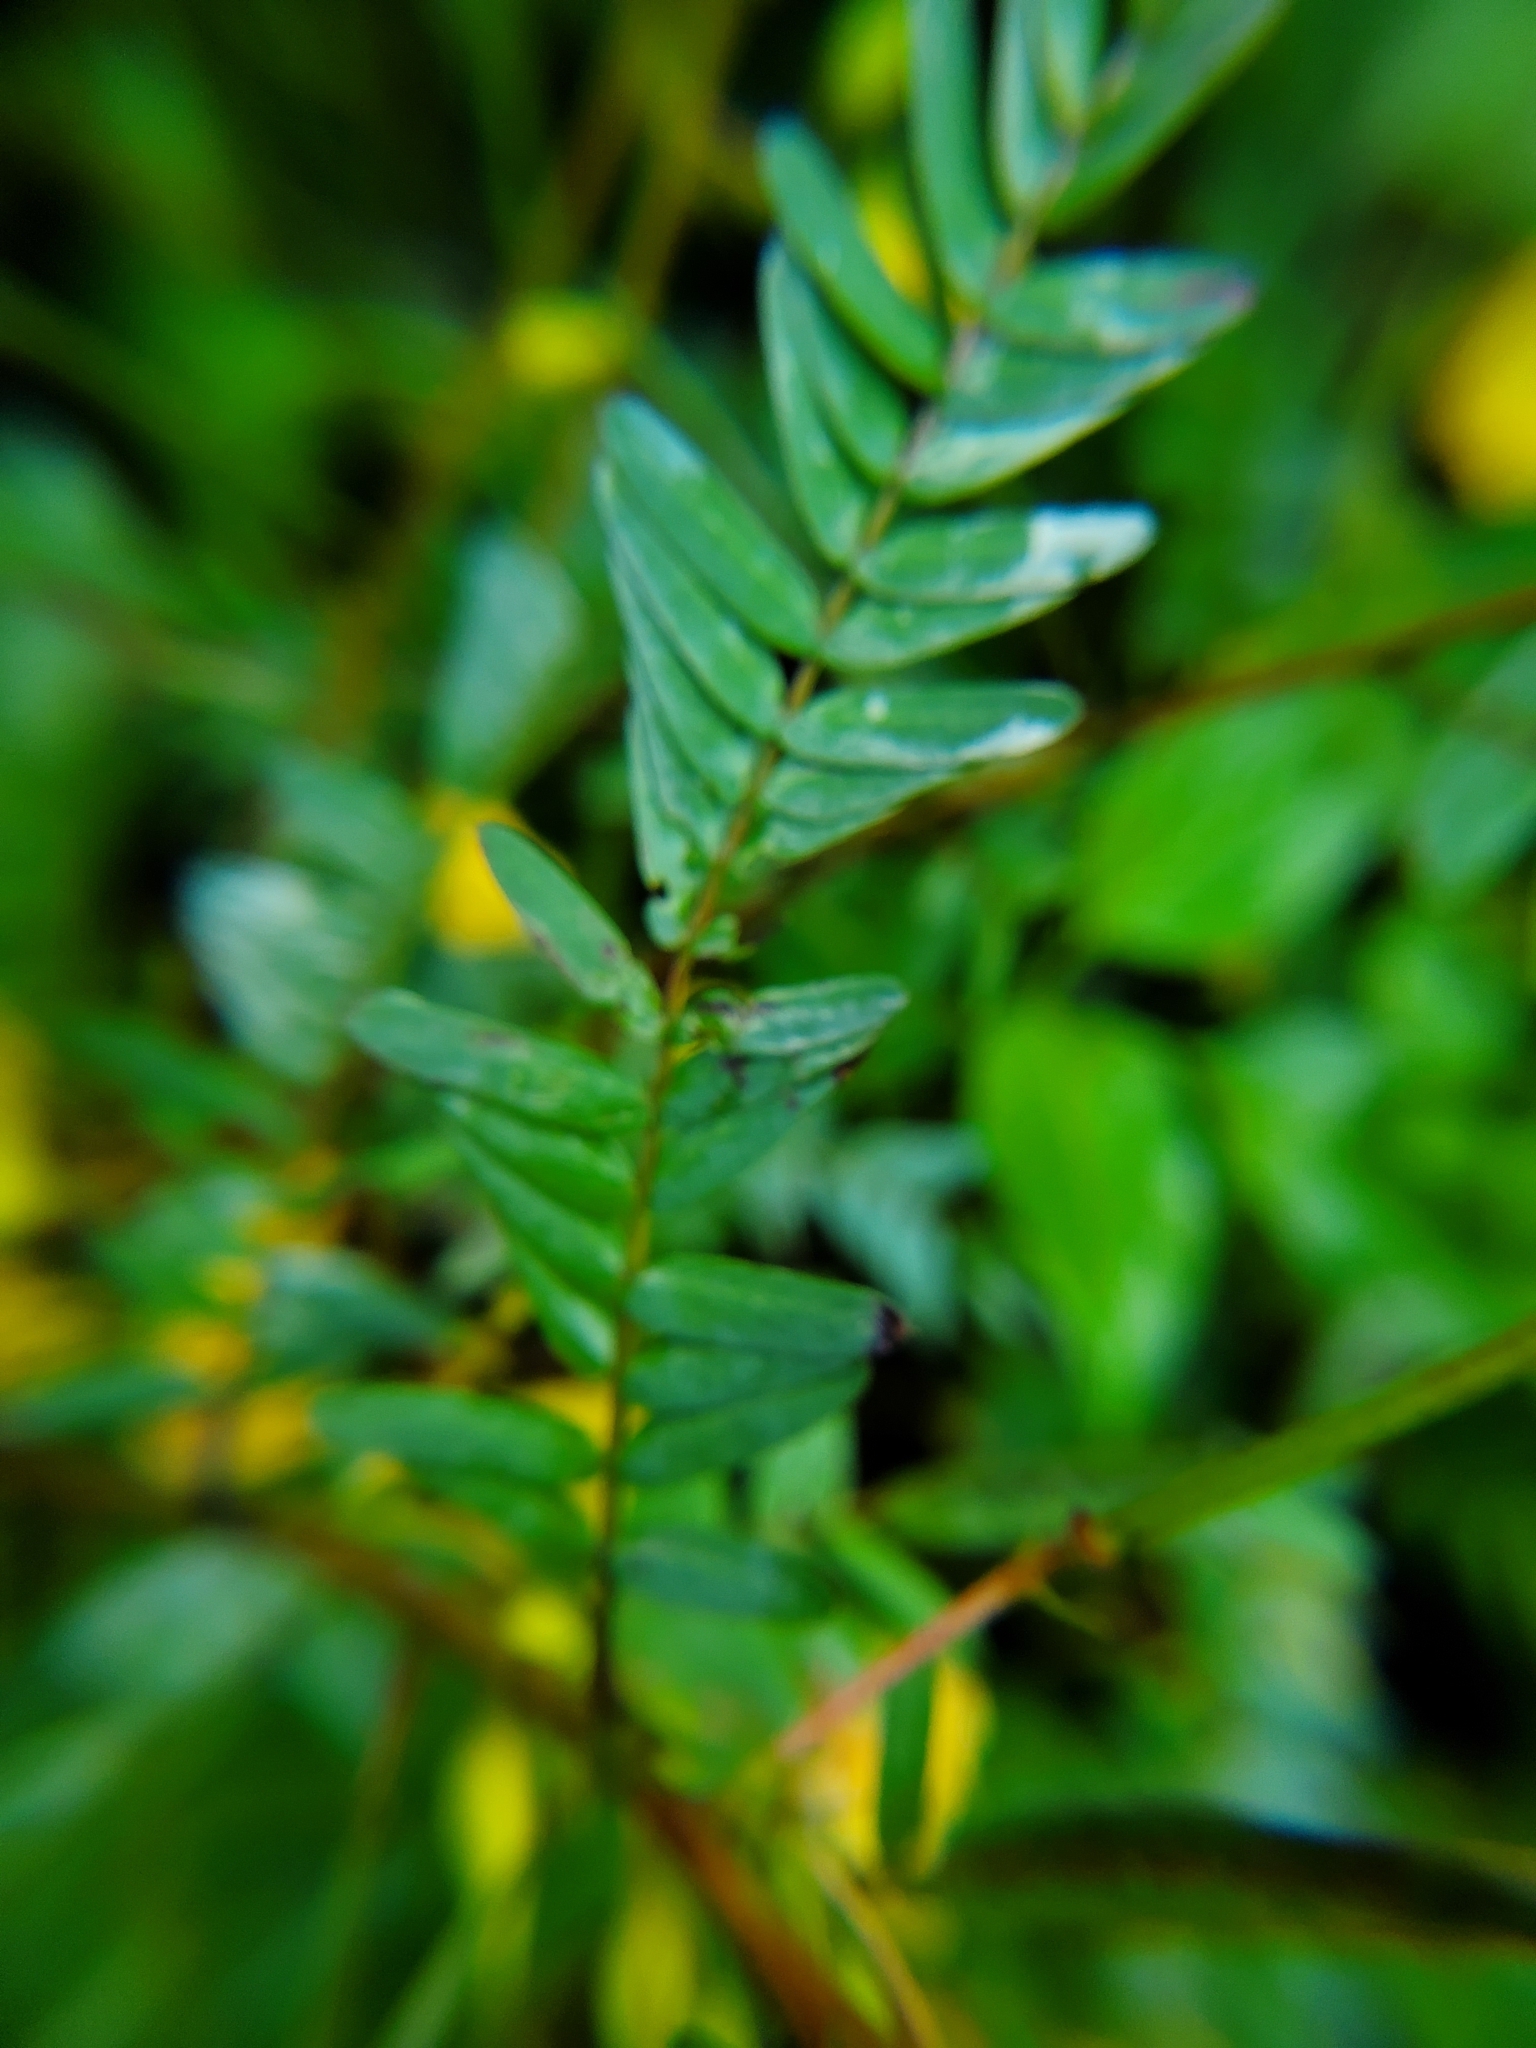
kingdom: Plantae
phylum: Tracheophyta
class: Magnoliopsida
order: Fabales
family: Fabaceae
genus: Chamaecrista
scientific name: Chamaecrista fasciculata
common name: Golden cassia
